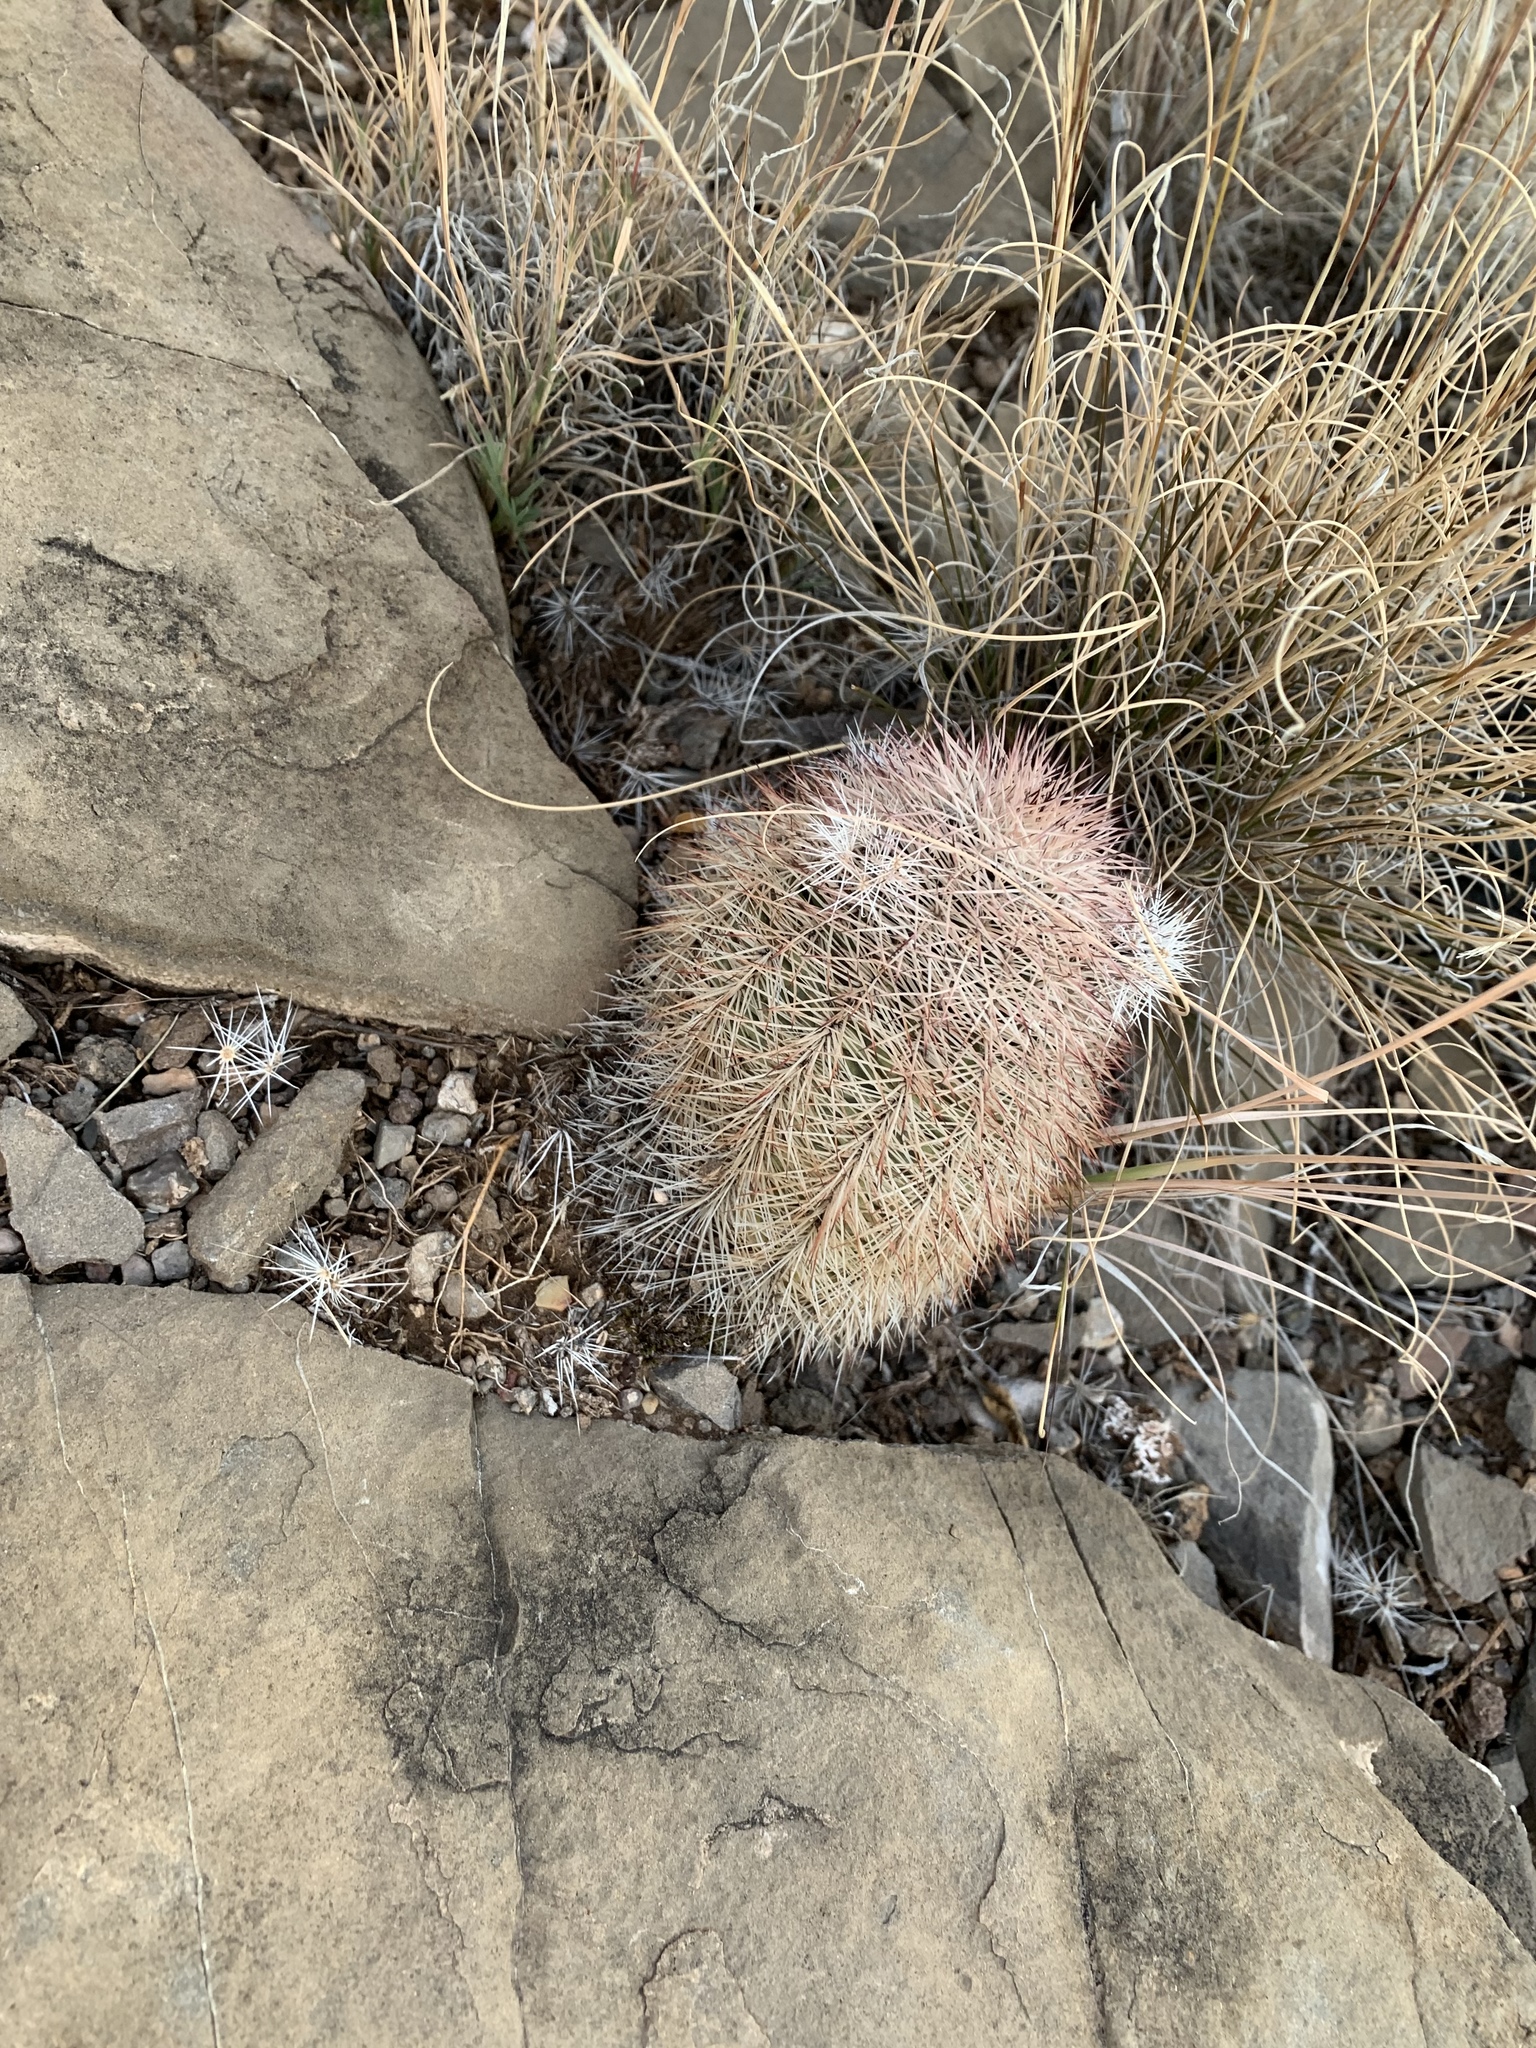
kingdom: Plantae
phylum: Tracheophyta
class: Magnoliopsida
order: Caryophyllales
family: Cactaceae
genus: Echinocereus
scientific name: Echinocereus dasyacanthus
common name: Spiny hedgehog cactus
